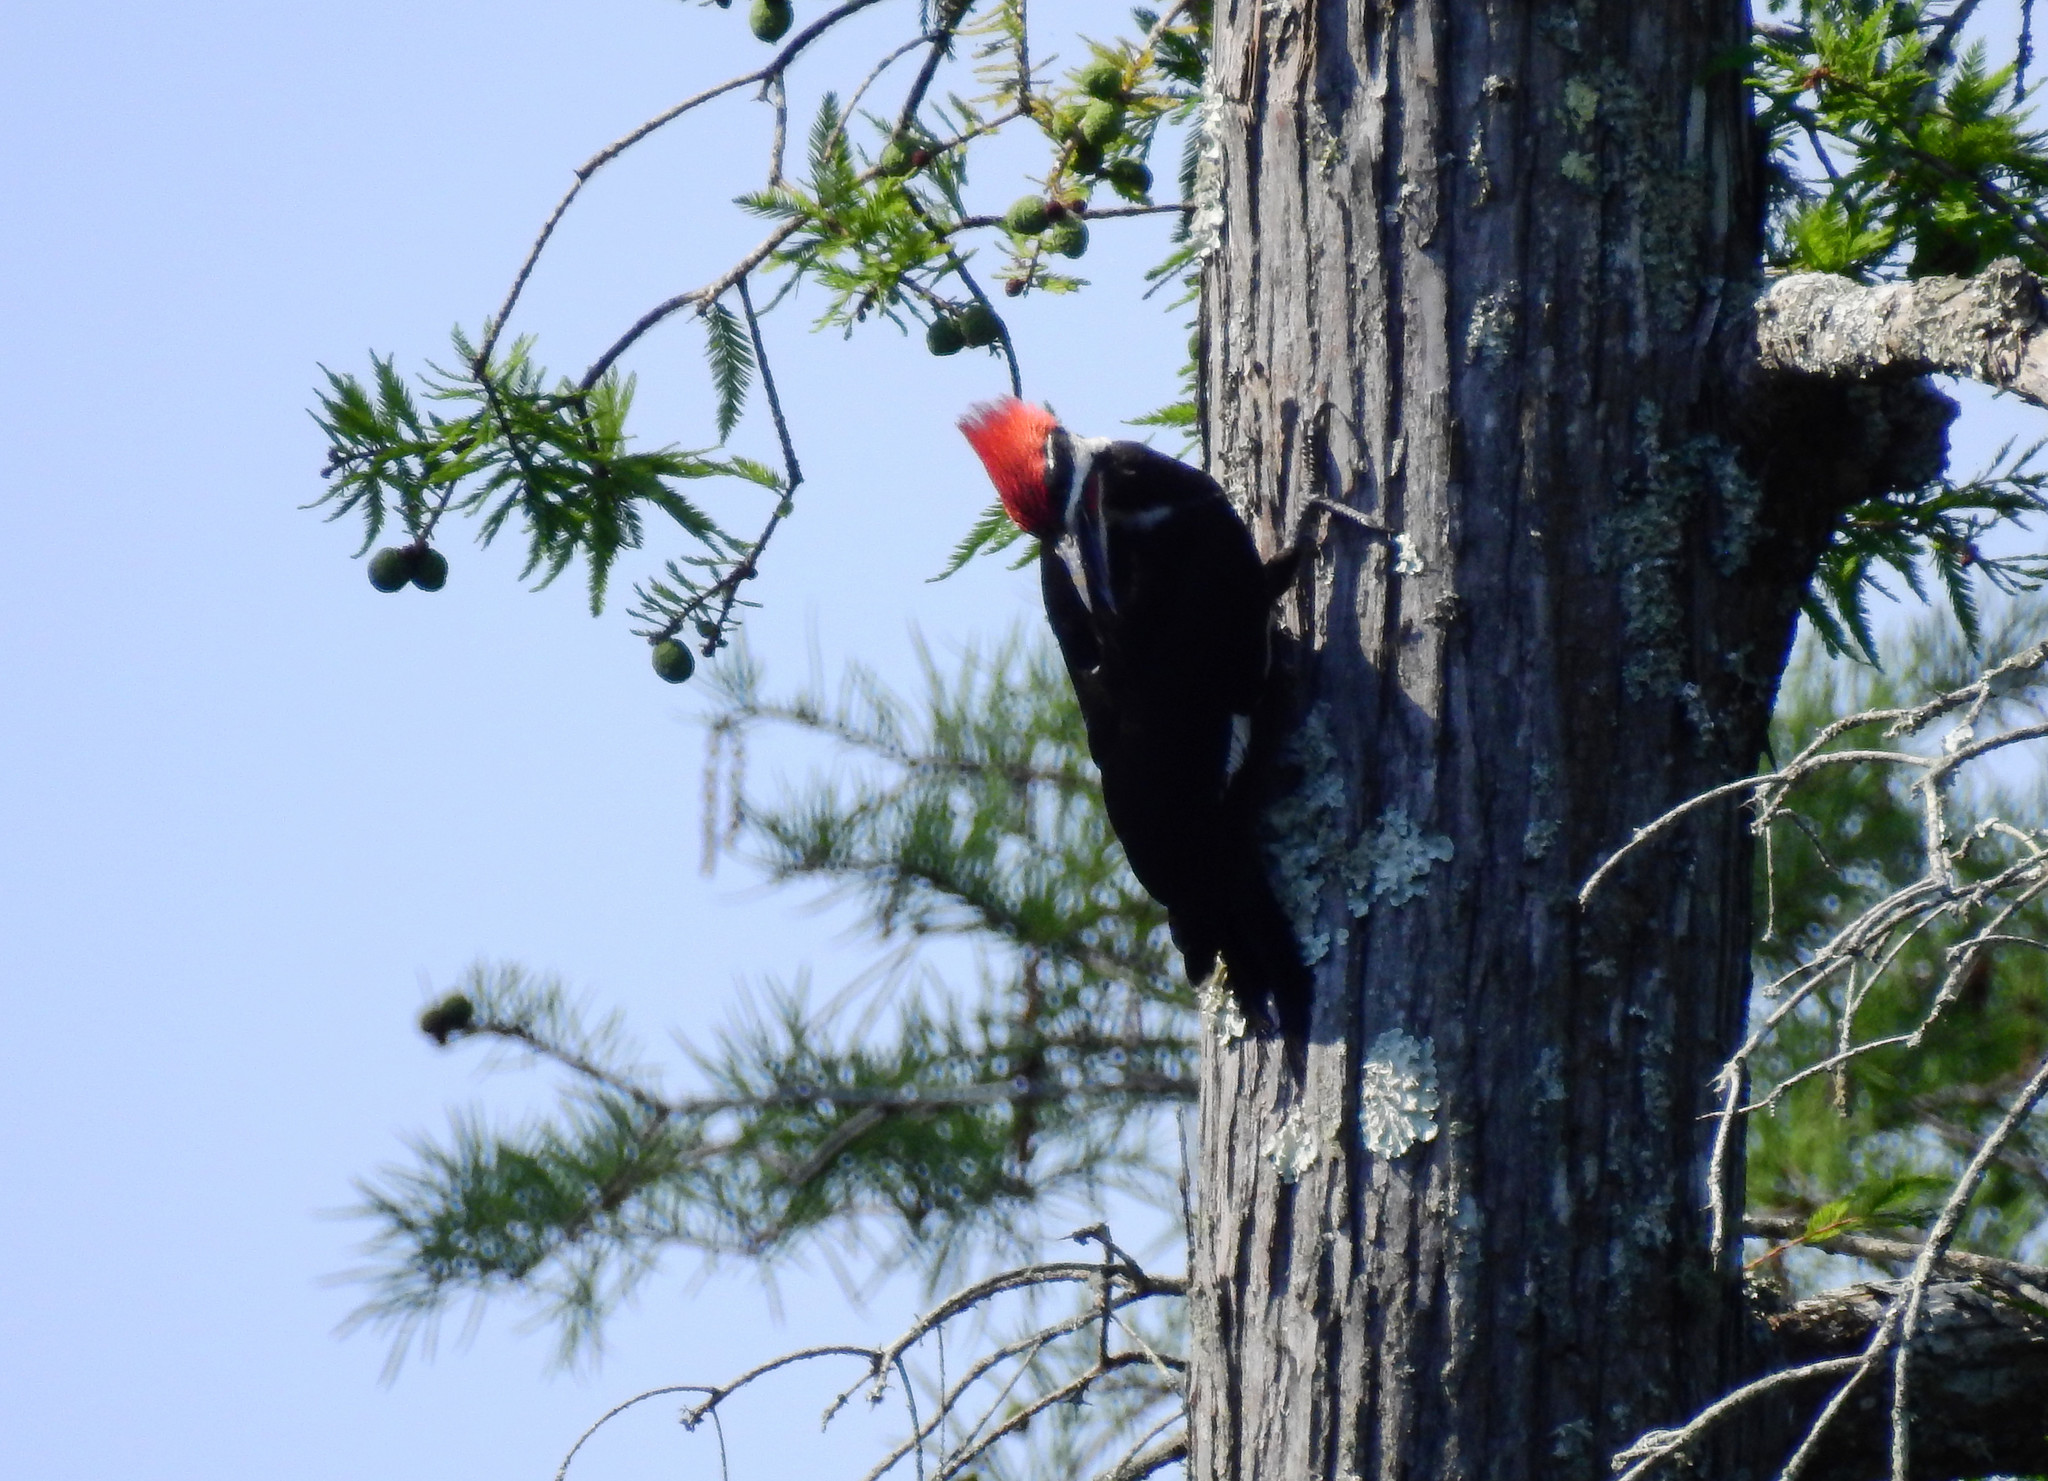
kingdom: Animalia
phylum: Chordata
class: Aves
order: Piciformes
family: Picidae
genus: Dryocopus
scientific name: Dryocopus pileatus
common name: Pileated woodpecker
